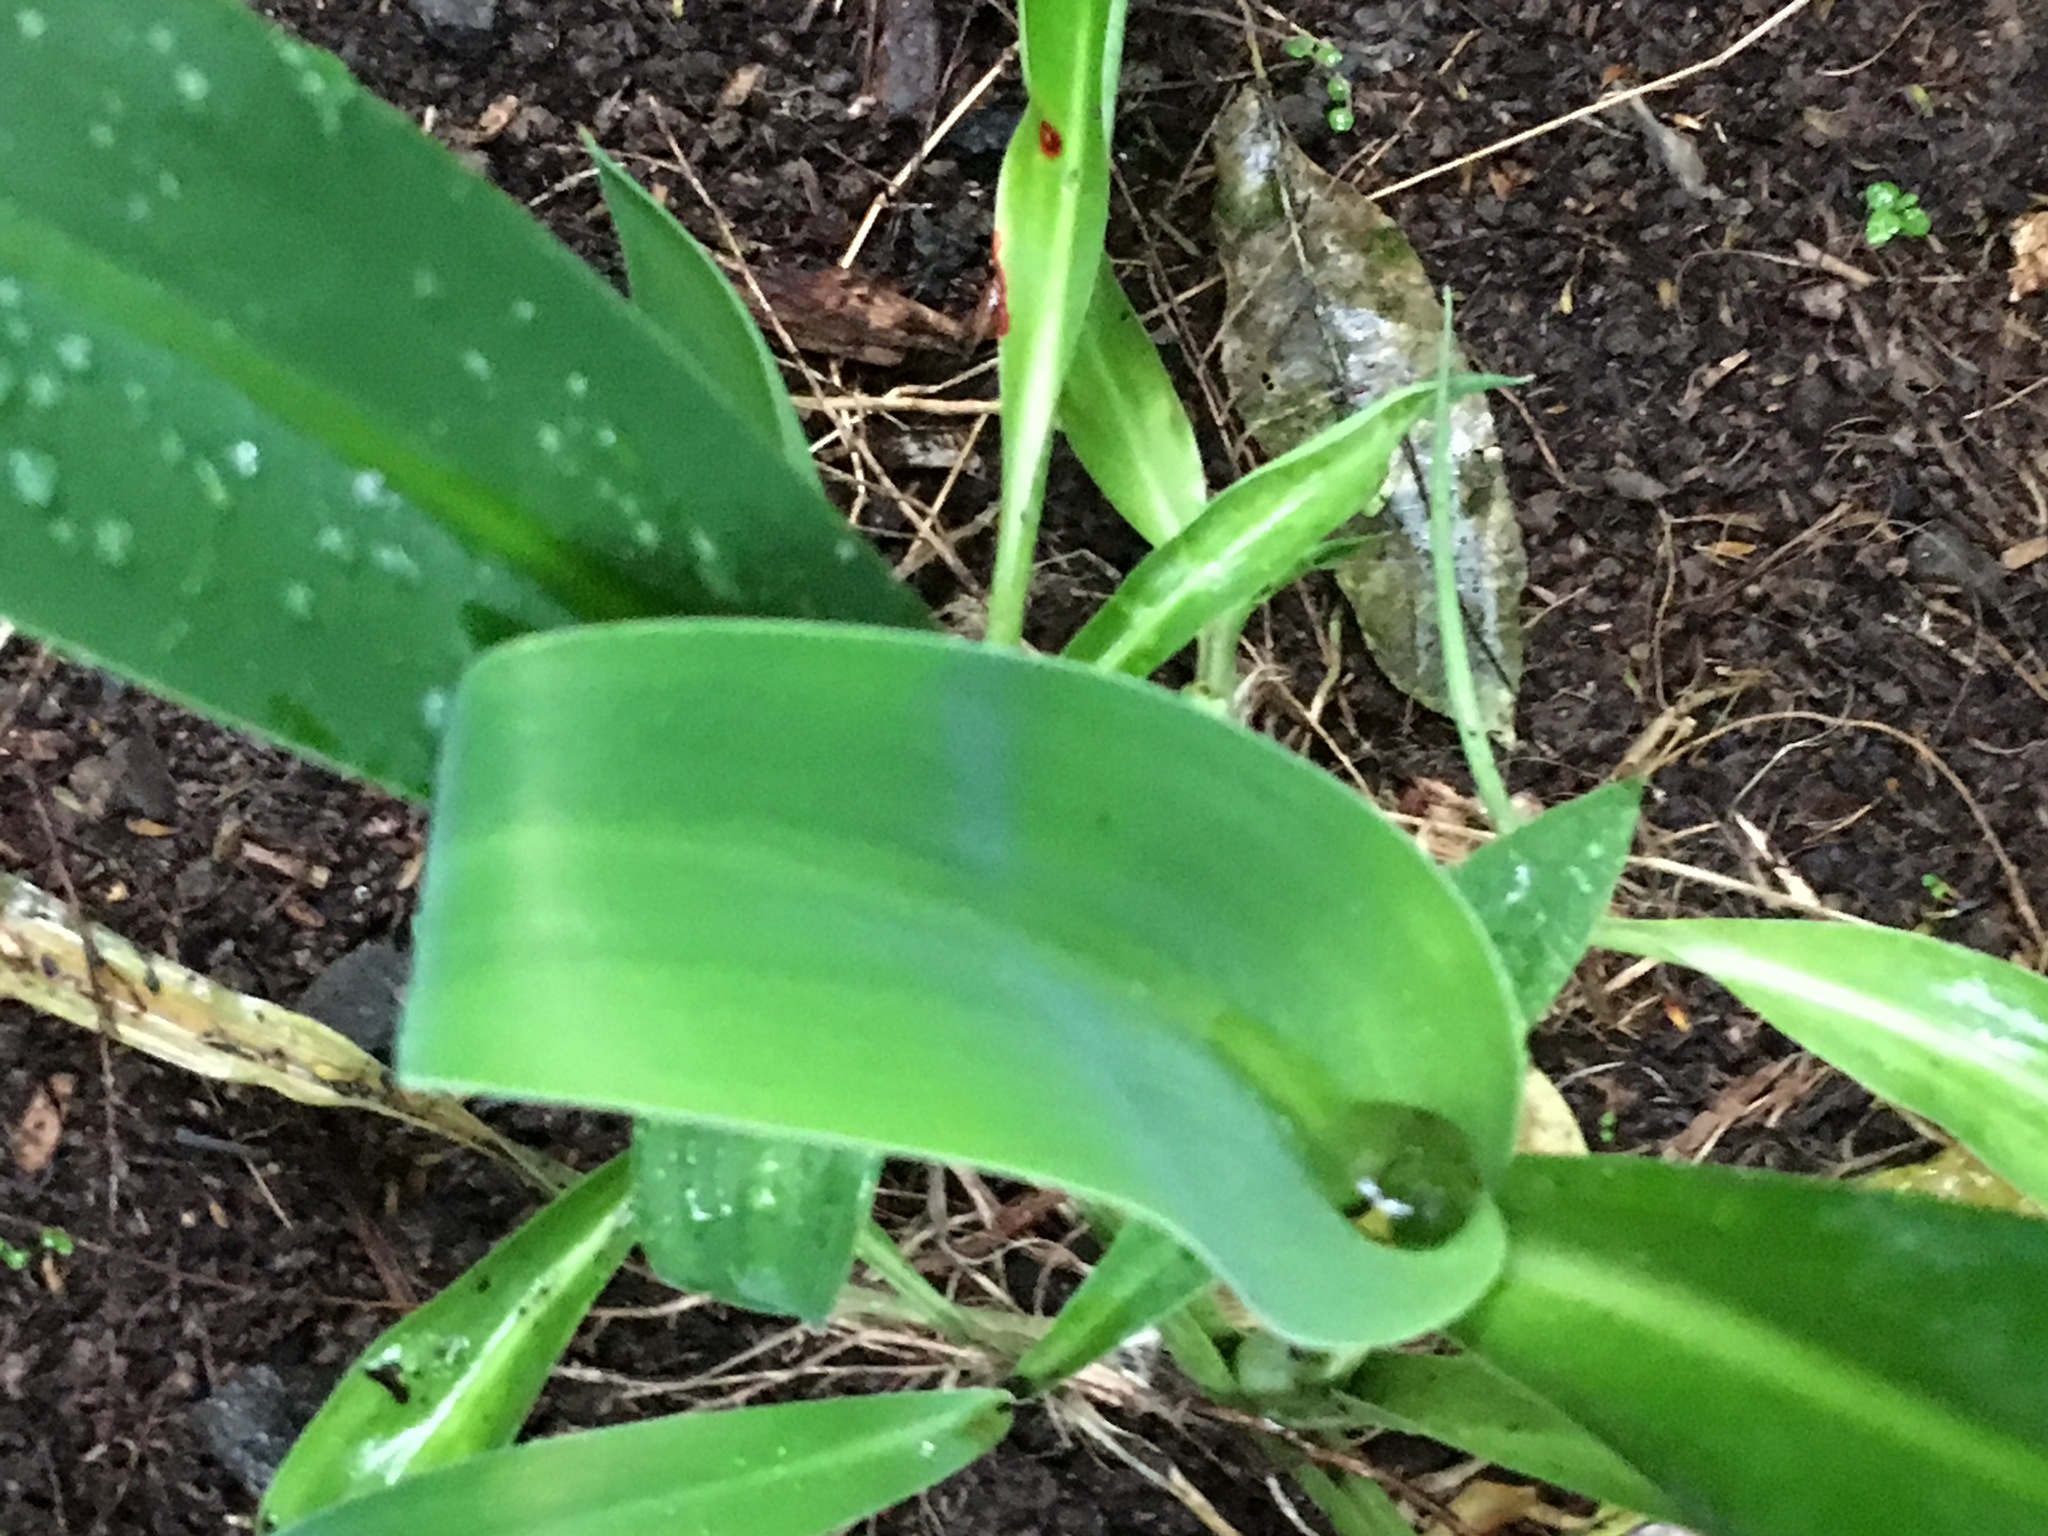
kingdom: Plantae
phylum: Tracheophyta
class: Liliopsida
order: Asparagales
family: Asparagaceae
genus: Arthropodium
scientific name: Arthropodium cirratum
